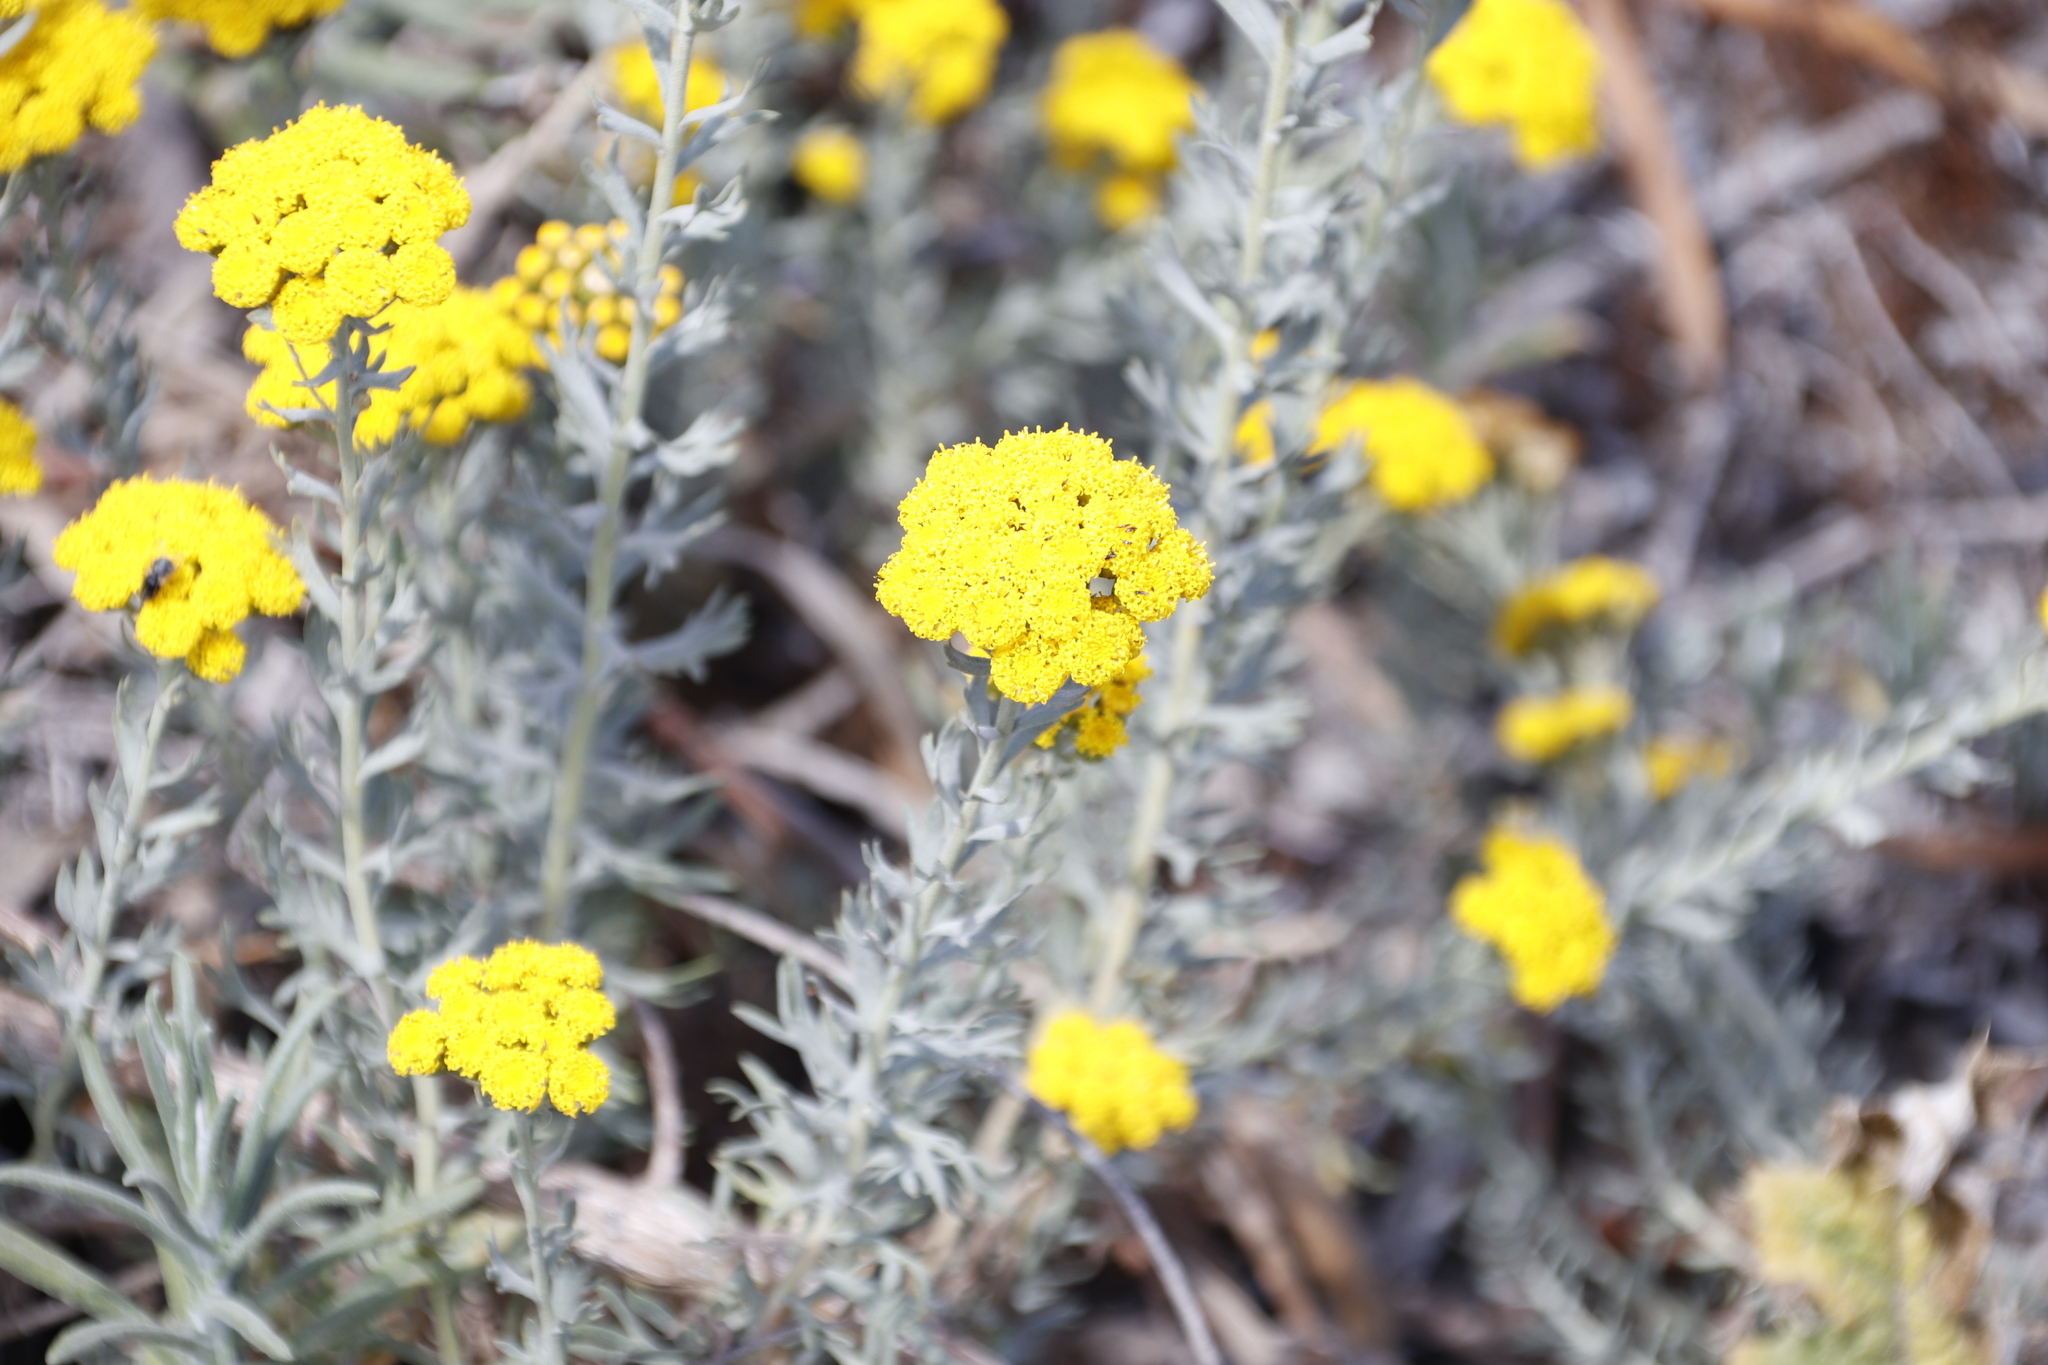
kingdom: Plantae
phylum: Tracheophyta
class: Magnoliopsida
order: Asterales
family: Asteraceae
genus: Athanasia
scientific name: Athanasia trifurcata
